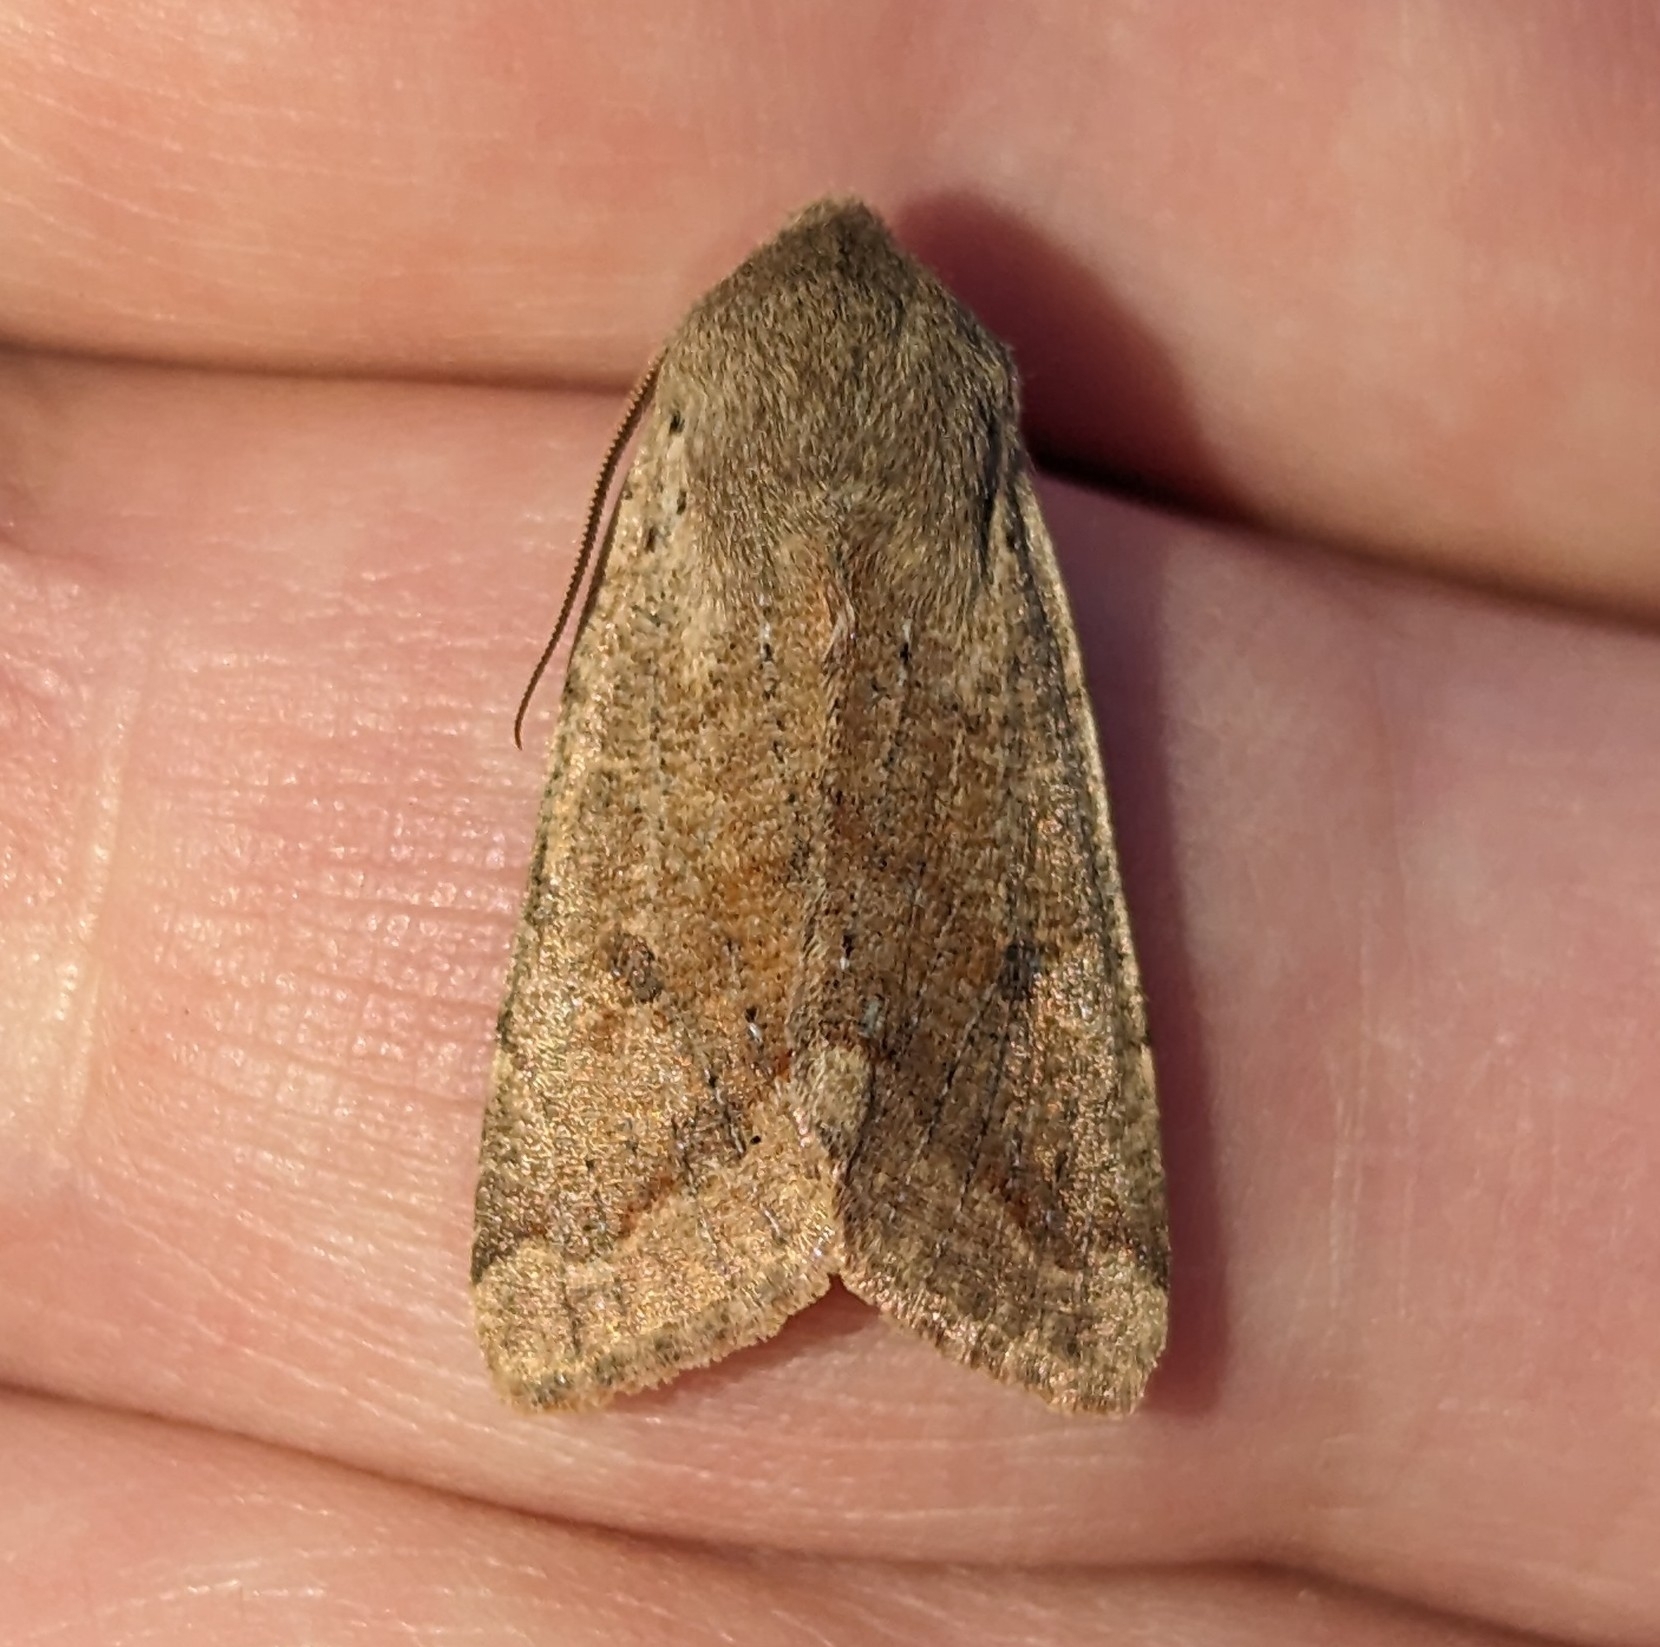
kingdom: Animalia
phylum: Arthropoda
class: Insecta
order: Lepidoptera
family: Noctuidae
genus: Orthosia
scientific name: Orthosia pacifica
